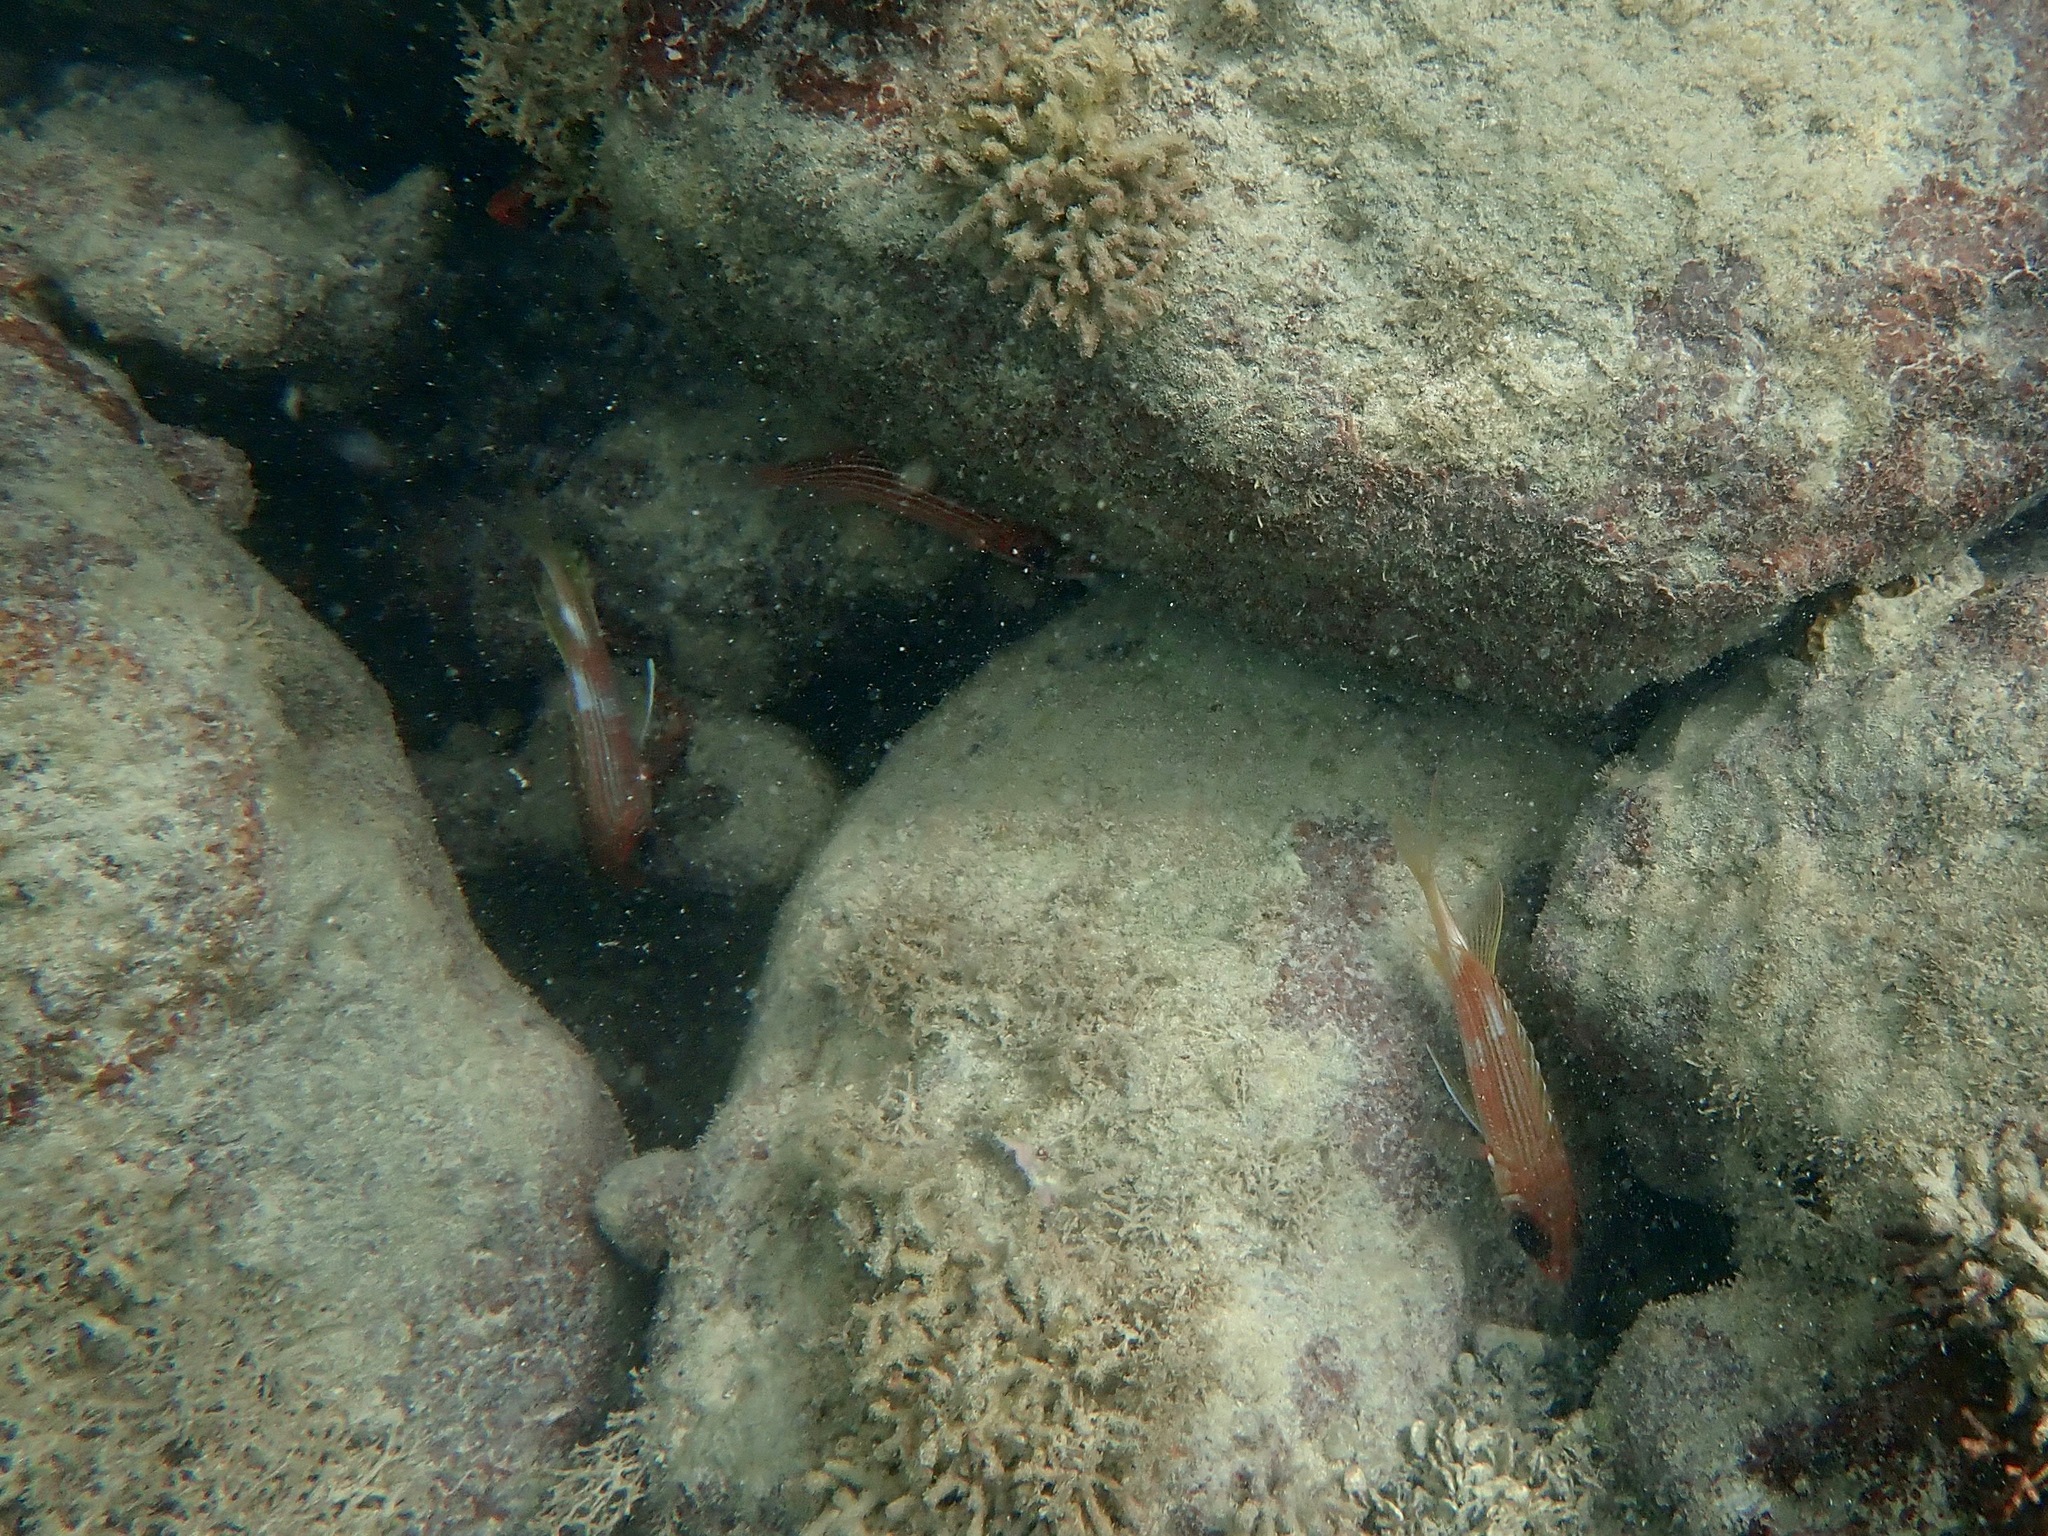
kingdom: Animalia
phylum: Chordata
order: Beryciformes
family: Holocentridae
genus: Holocentrus
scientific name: Holocentrus rufus
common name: Longspine squirrelfish
